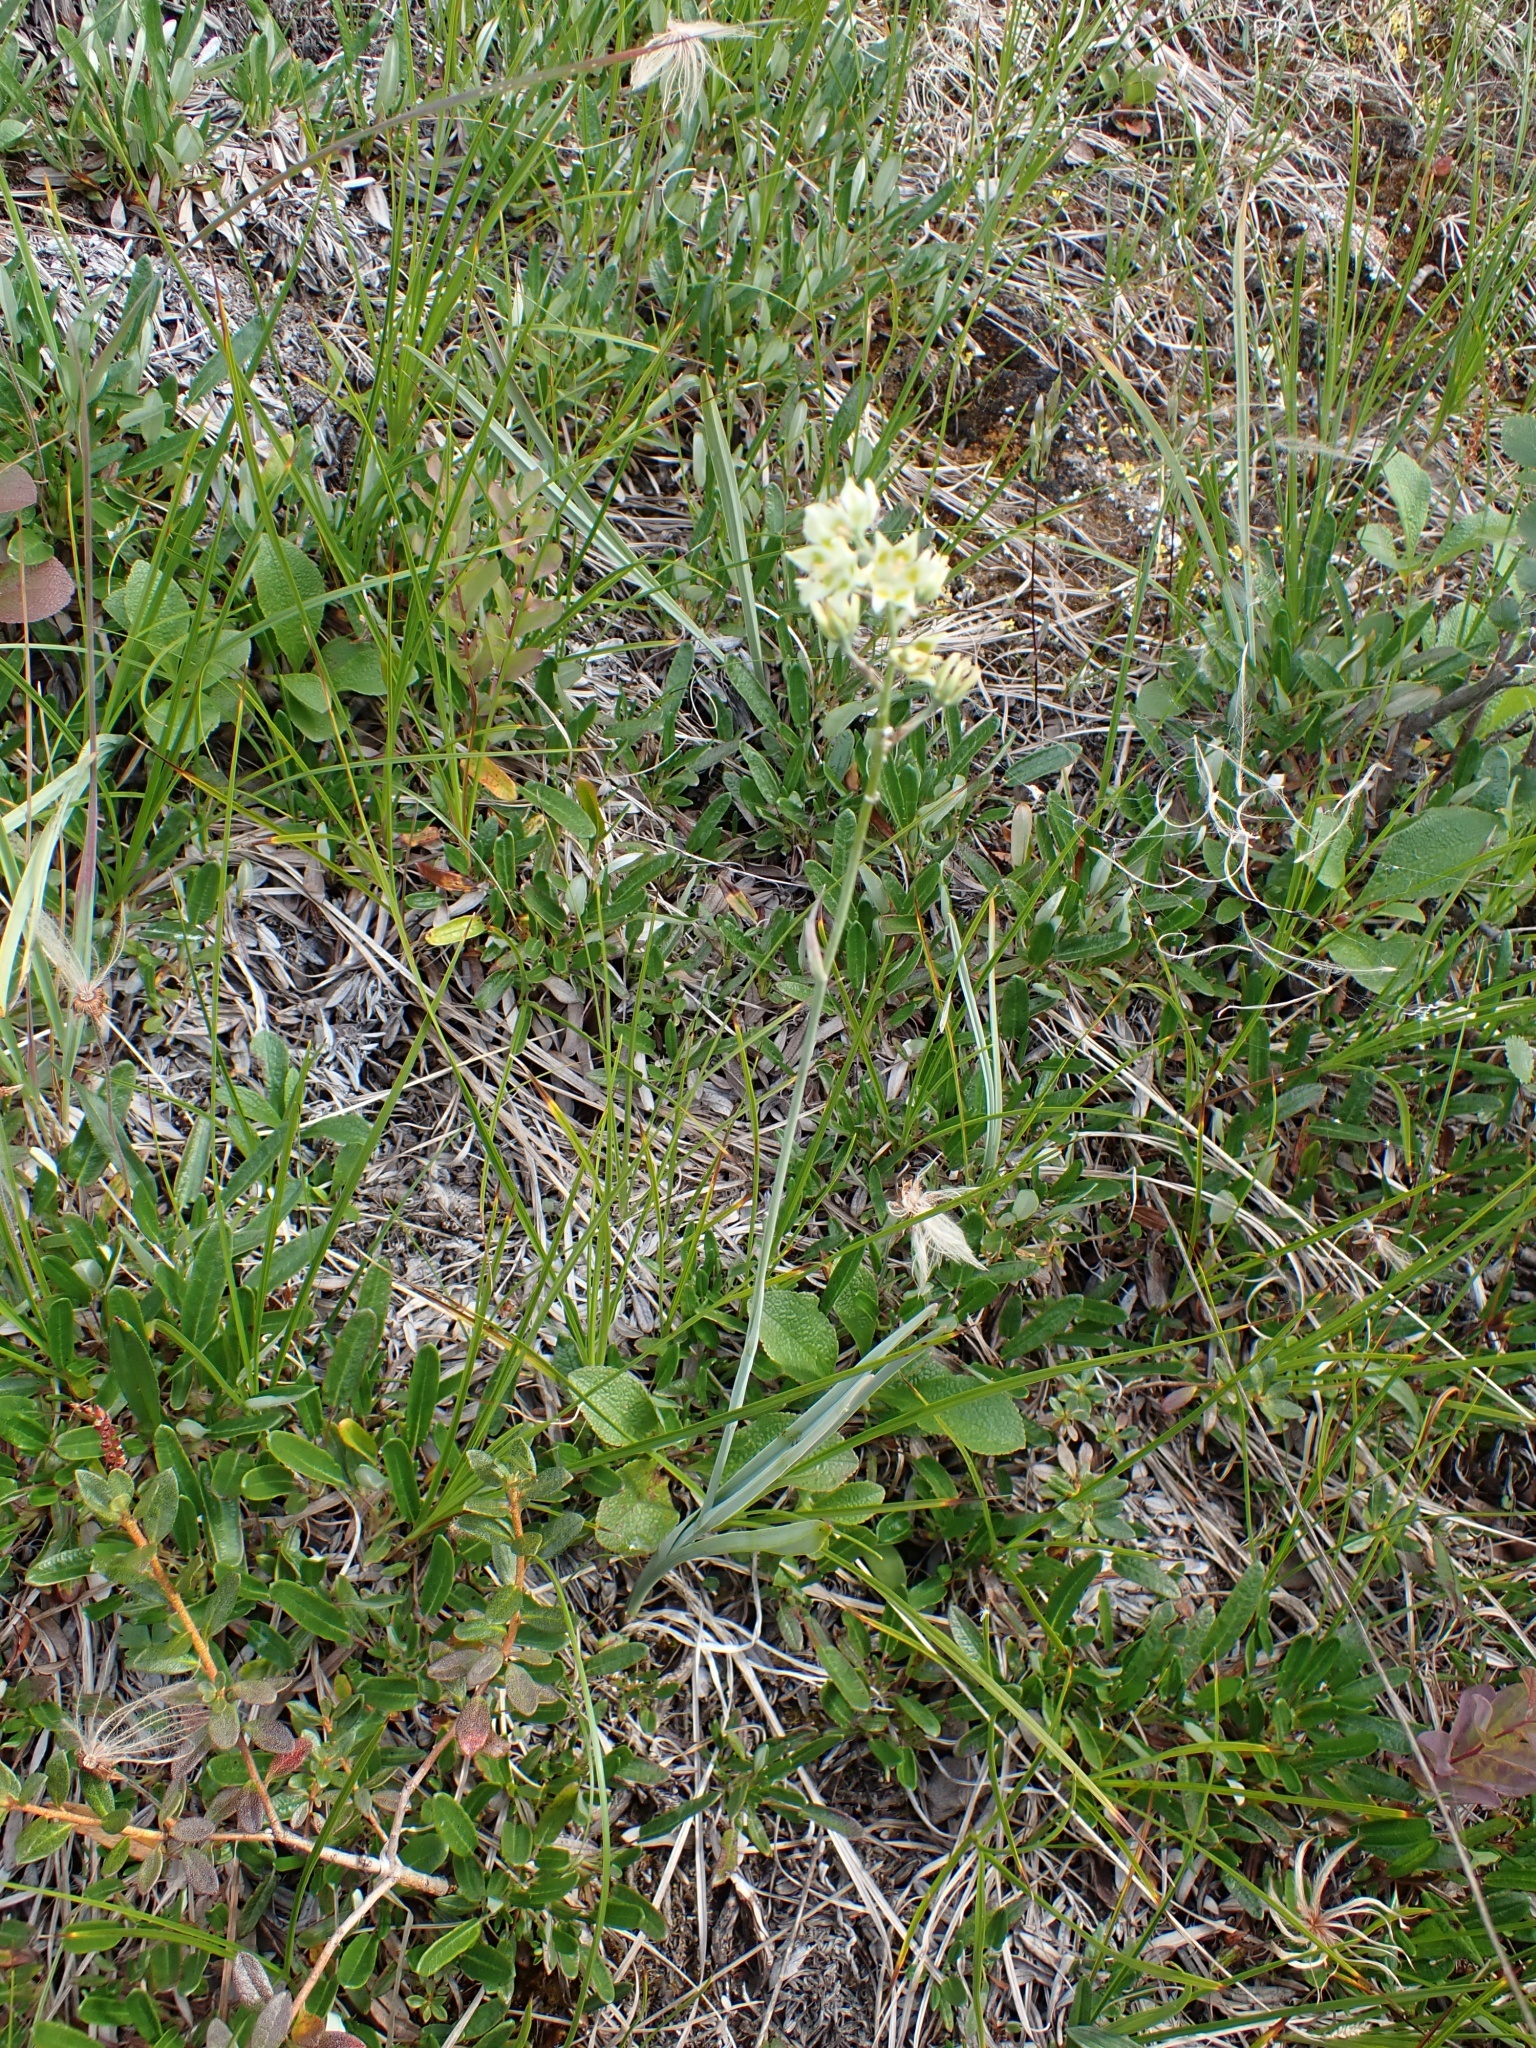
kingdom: Plantae
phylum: Tracheophyta
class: Liliopsida
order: Liliales
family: Melanthiaceae
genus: Anticlea
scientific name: Anticlea elegans
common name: Mountain death camas
